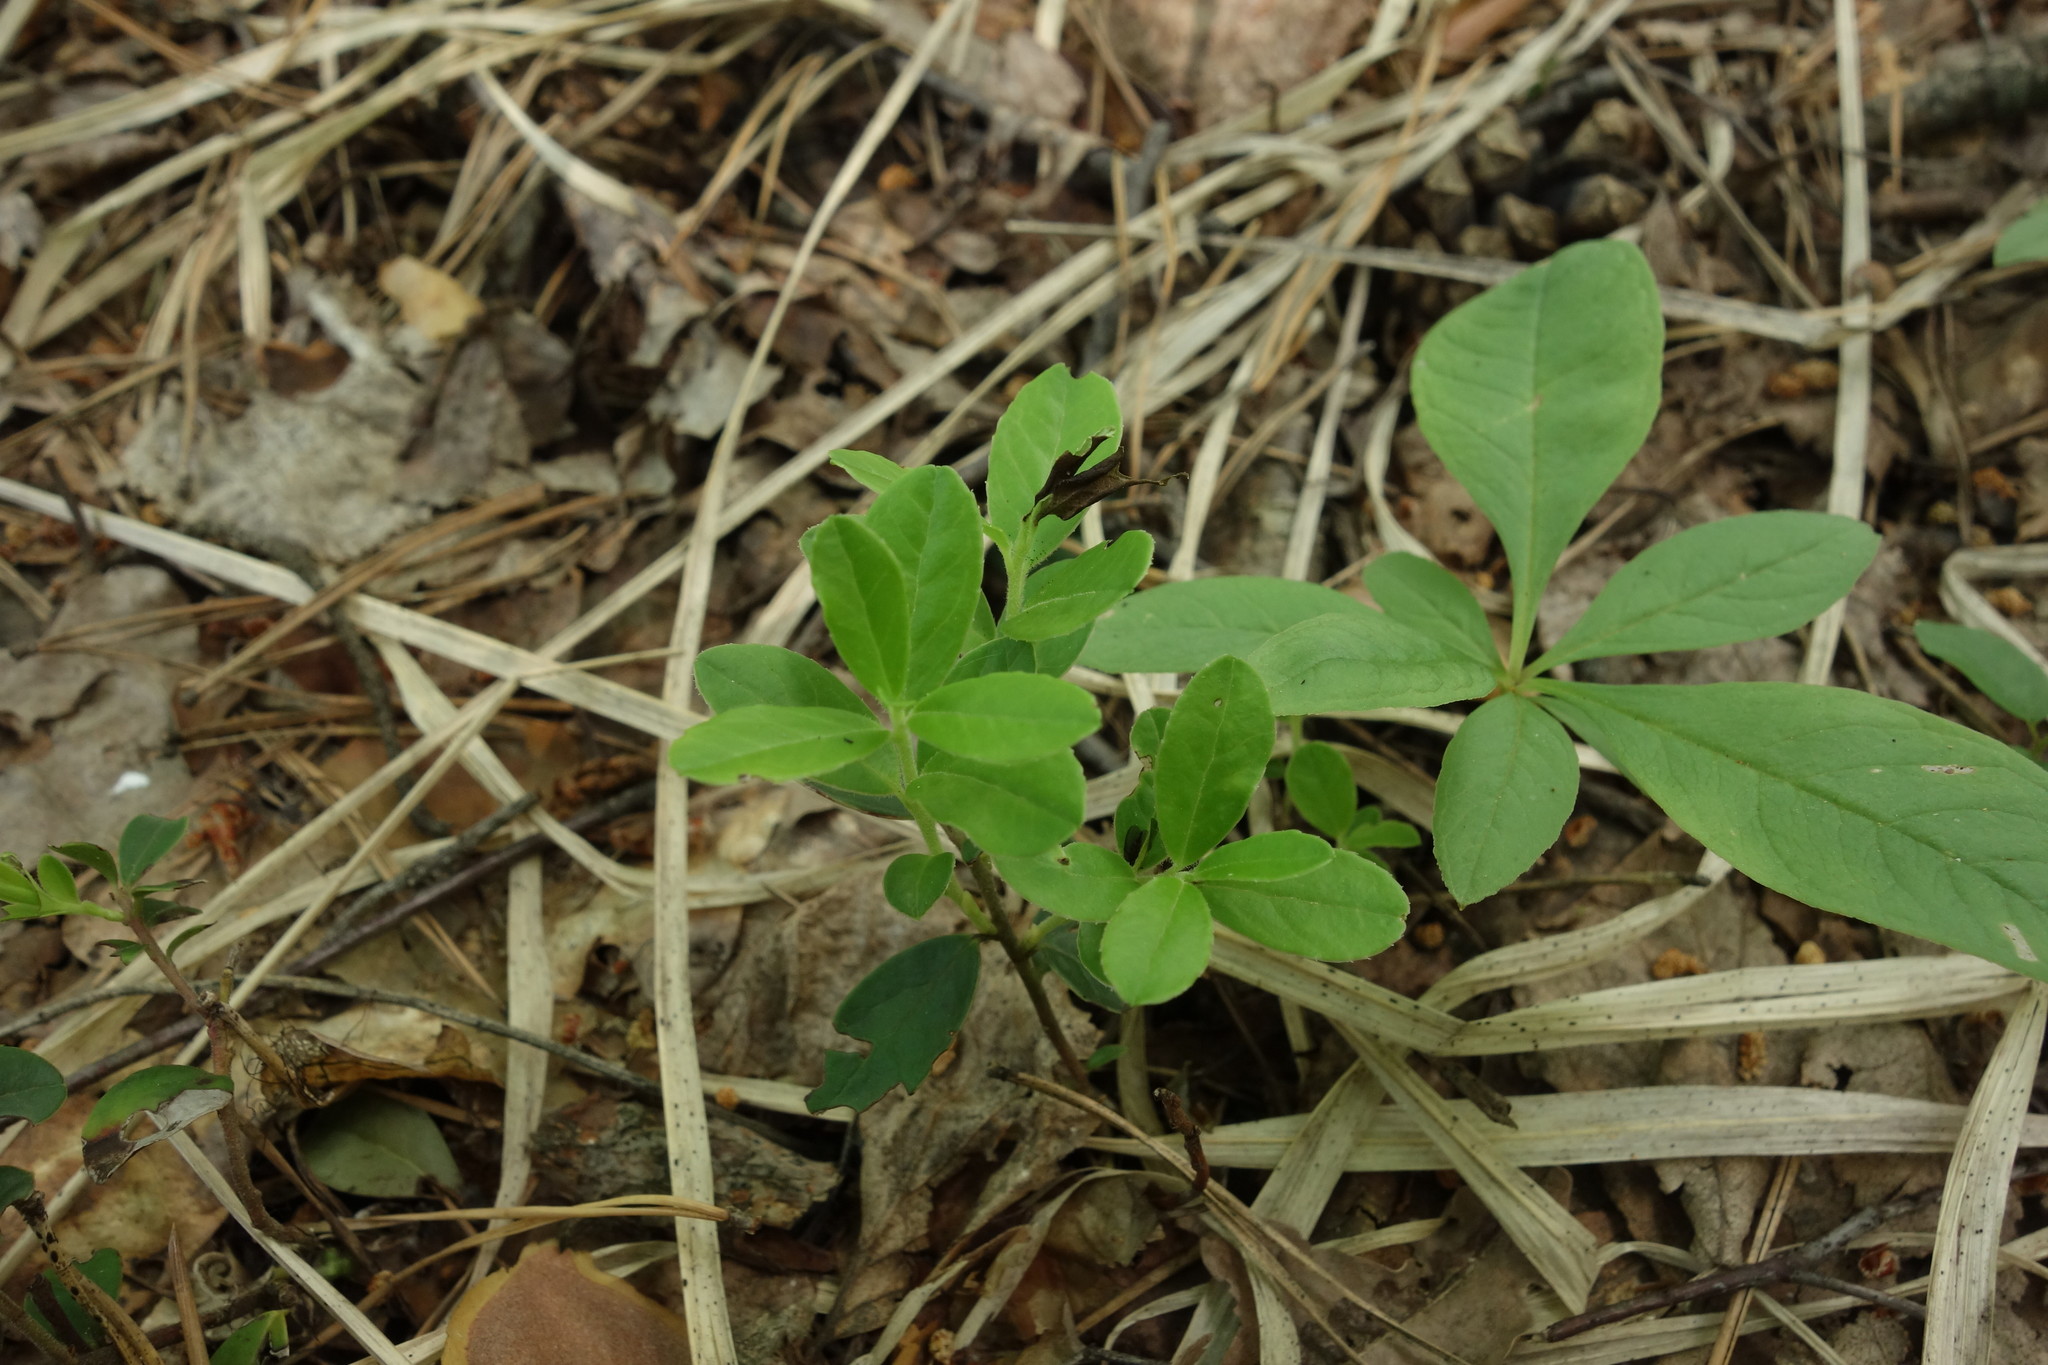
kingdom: Plantae
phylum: Tracheophyta
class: Magnoliopsida
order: Ericales
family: Ericaceae
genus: Vaccinium
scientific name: Vaccinium vitis-idaea
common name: Cowberry
